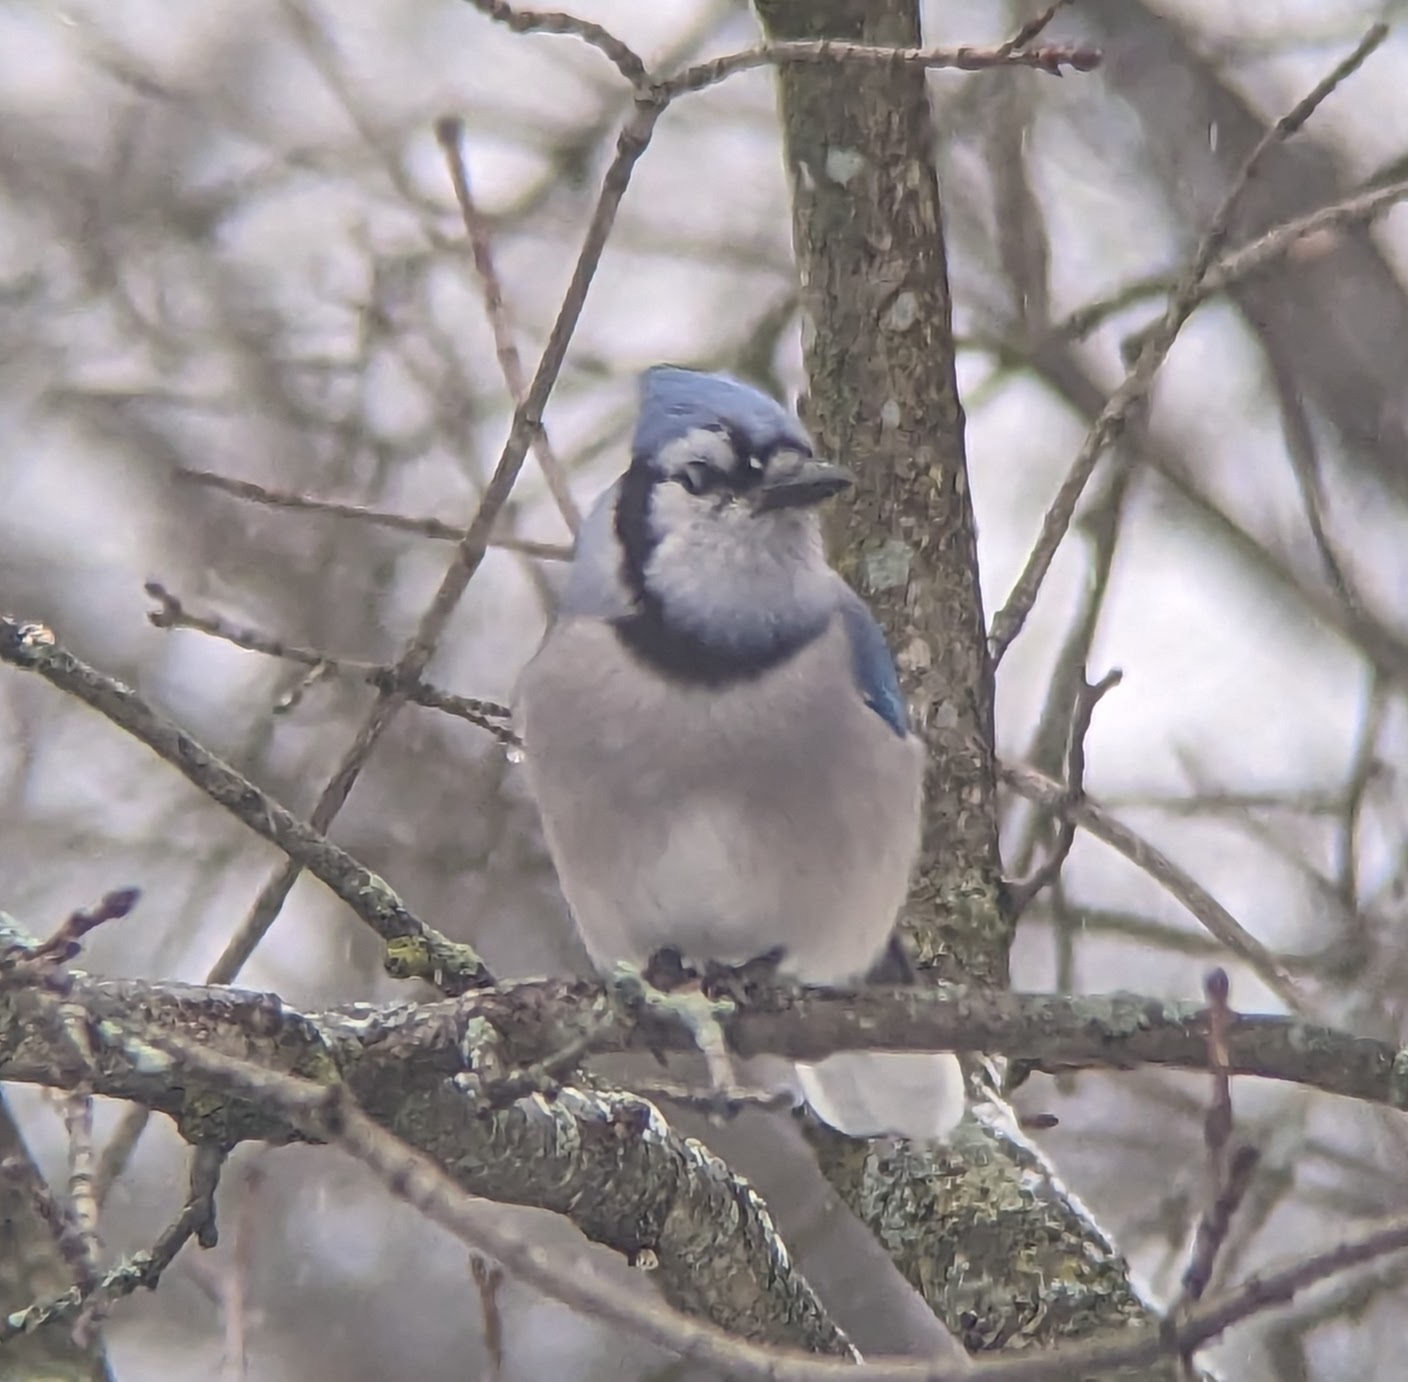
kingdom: Animalia
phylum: Chordata
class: Aves
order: Passeriformes
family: Corvidae
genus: Cyanocitta
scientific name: Cyanocitta cristata
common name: Blue jay
